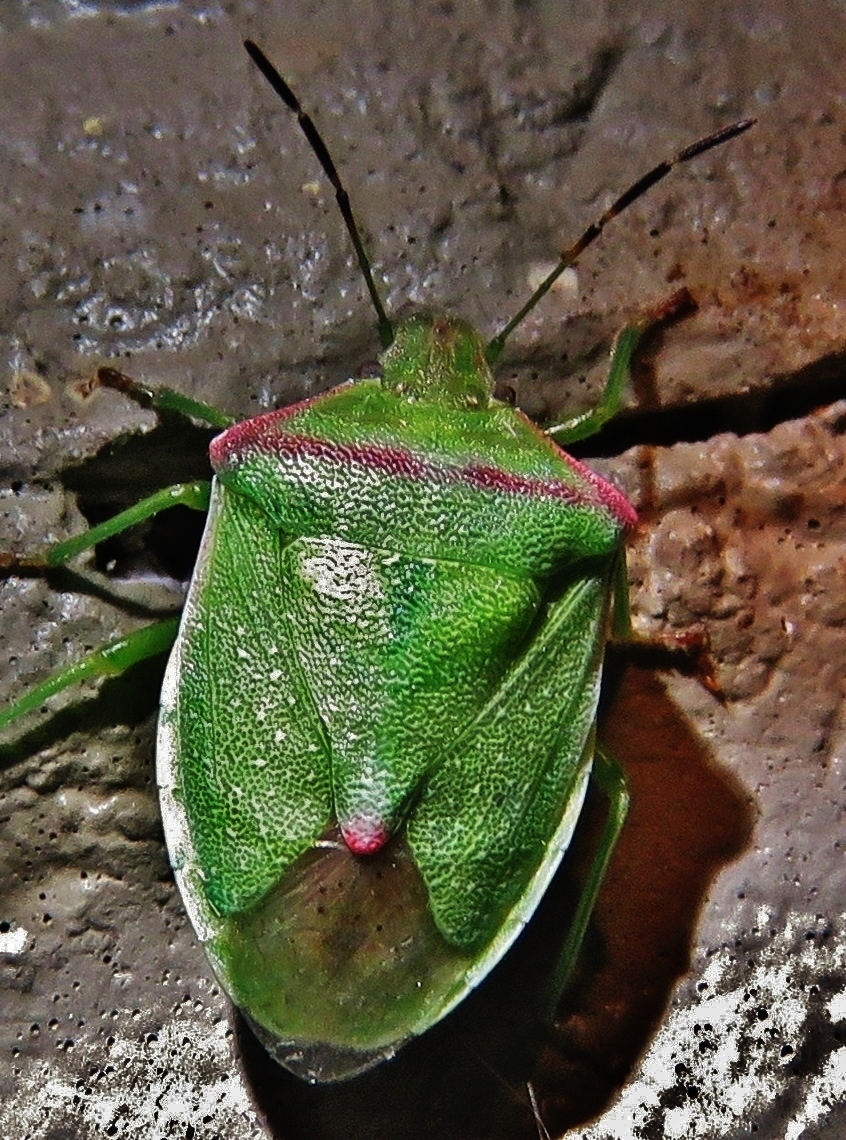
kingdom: Animalia
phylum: Arthropoda
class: Insecta
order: Hemiptera
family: Pentatomidae
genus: Thyanta
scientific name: Thyanta custator
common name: Stink bug
